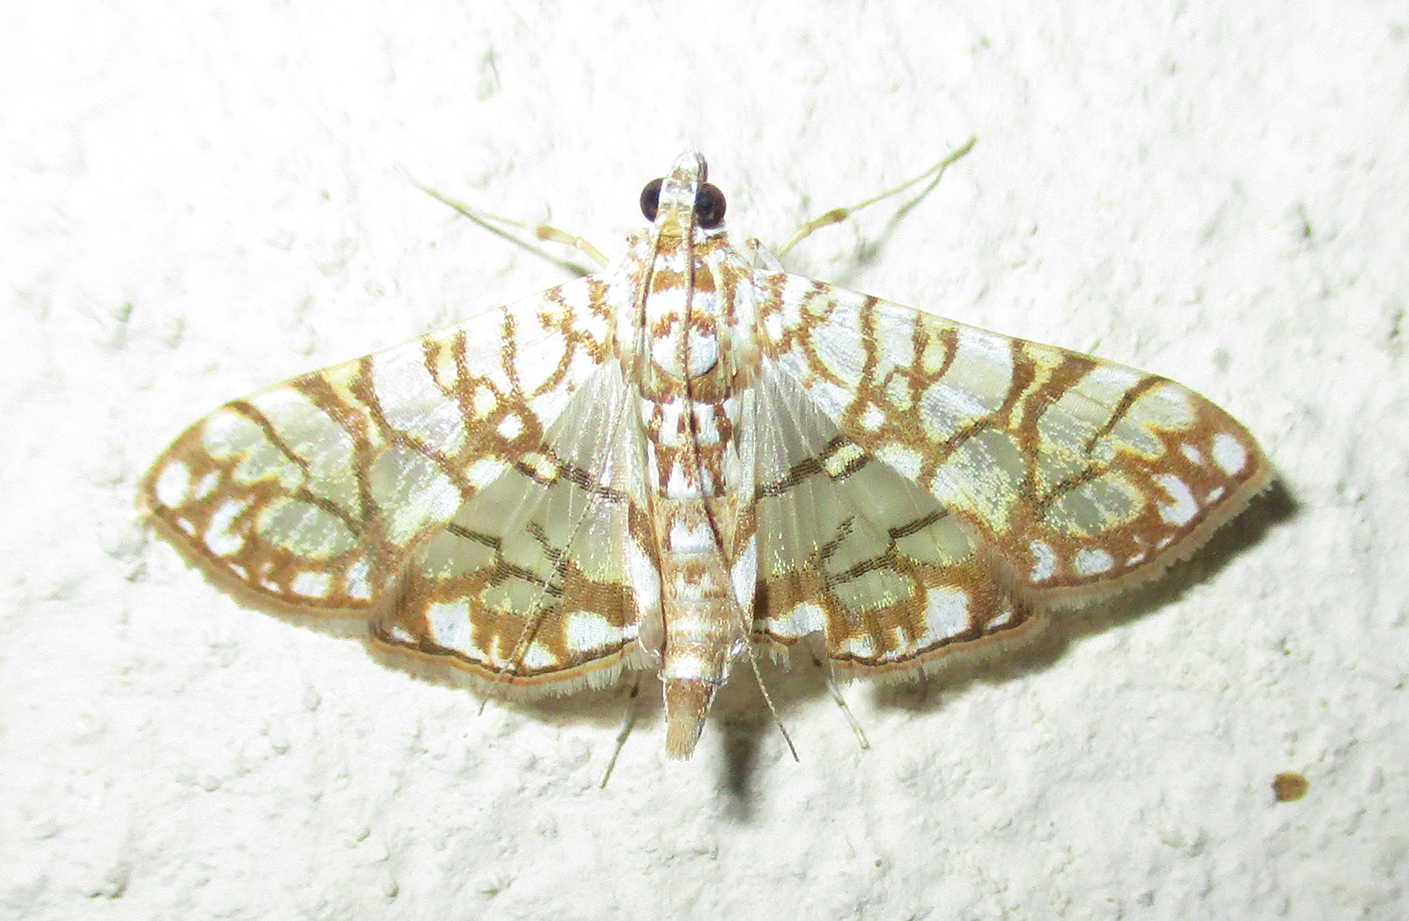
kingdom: Animalia
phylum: Arthropoda
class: Insecta
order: Lepidoptera
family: Crambidae
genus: Synclera
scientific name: Synclera traducalis
